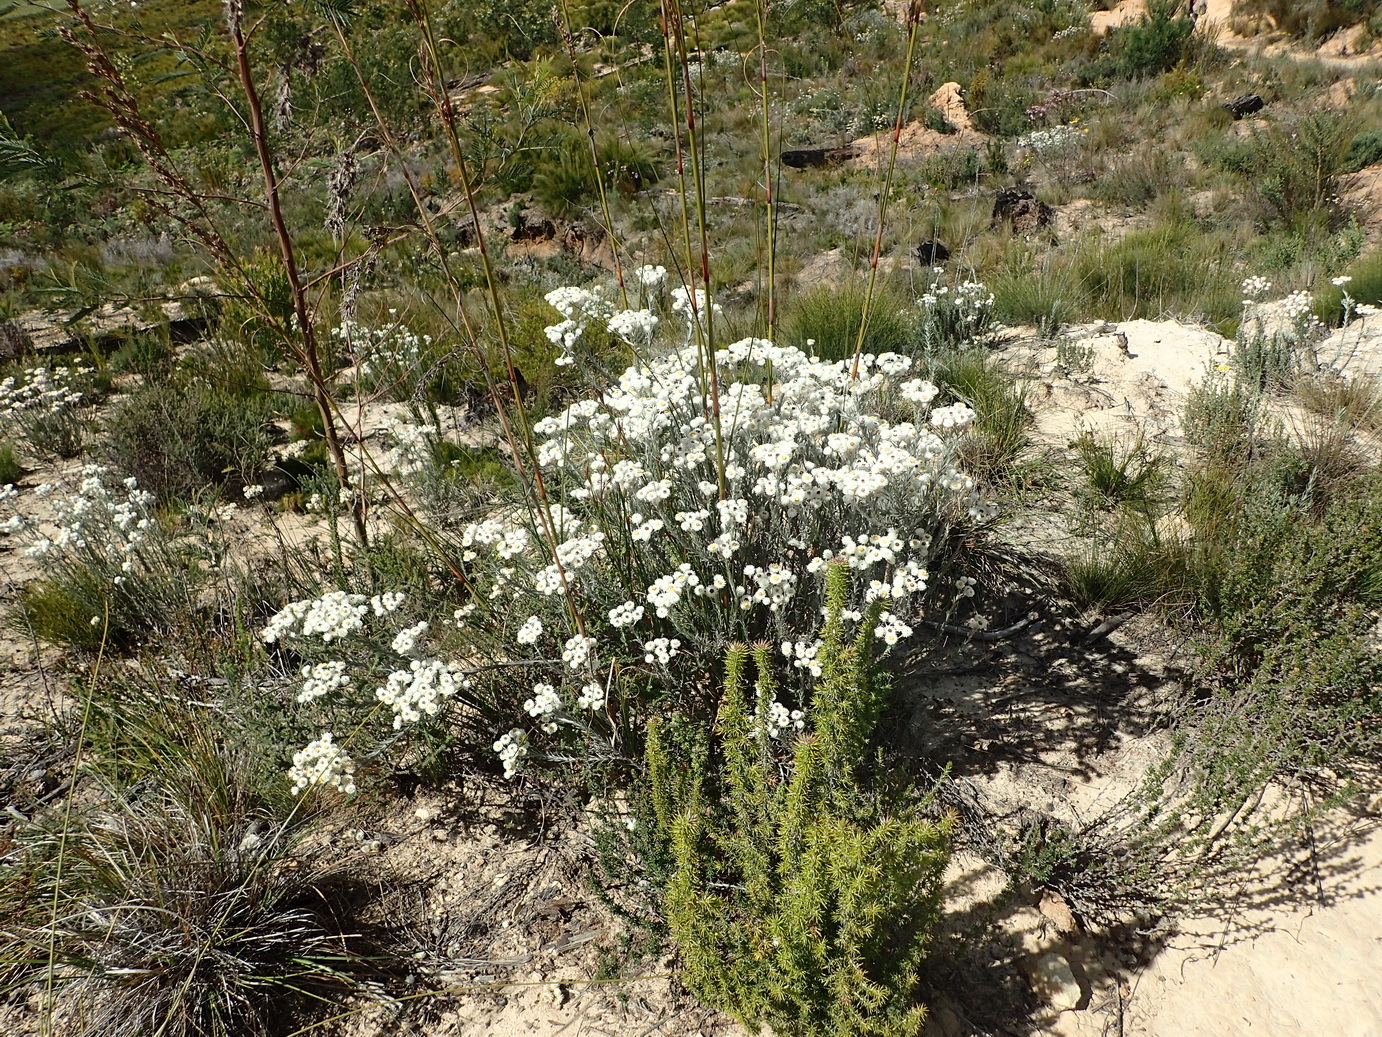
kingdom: Plantae
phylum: Tracheophyta
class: Magnoliopsida
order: Asterales
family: Asteraceae
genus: Achyranthemum
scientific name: Achyranthemum paniculatum
